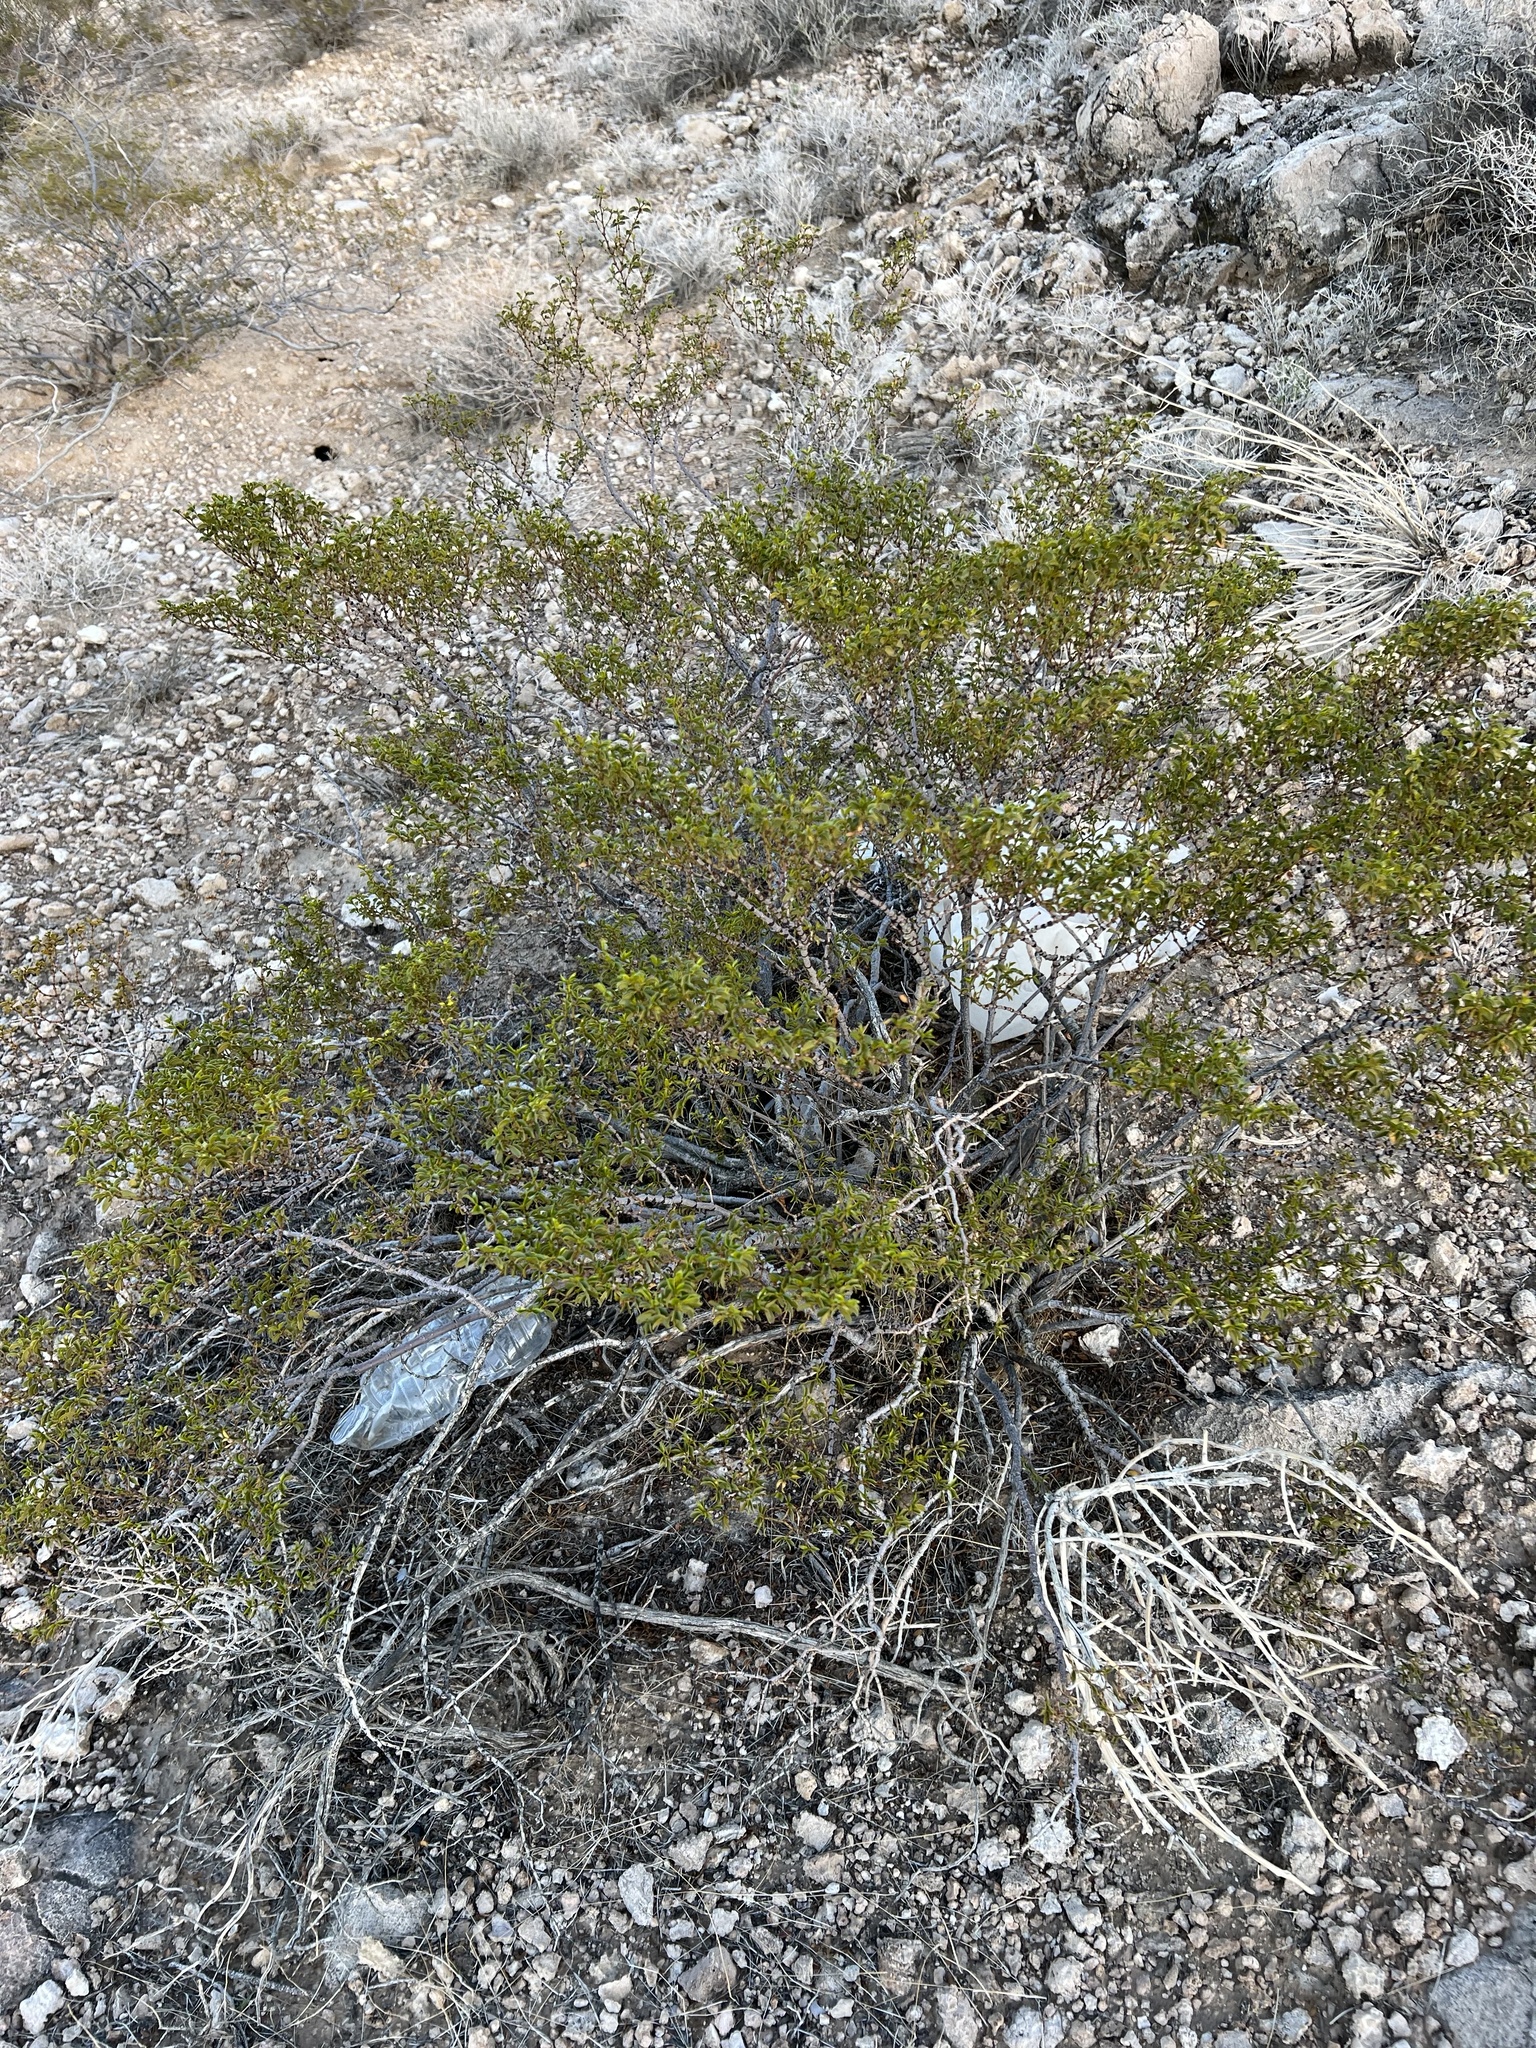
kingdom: Plantae
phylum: Tracheophyta
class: Magnoliopsida
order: Zygophyllales
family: Zygophyllaceae
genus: Larrea
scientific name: Larrea tridentata
